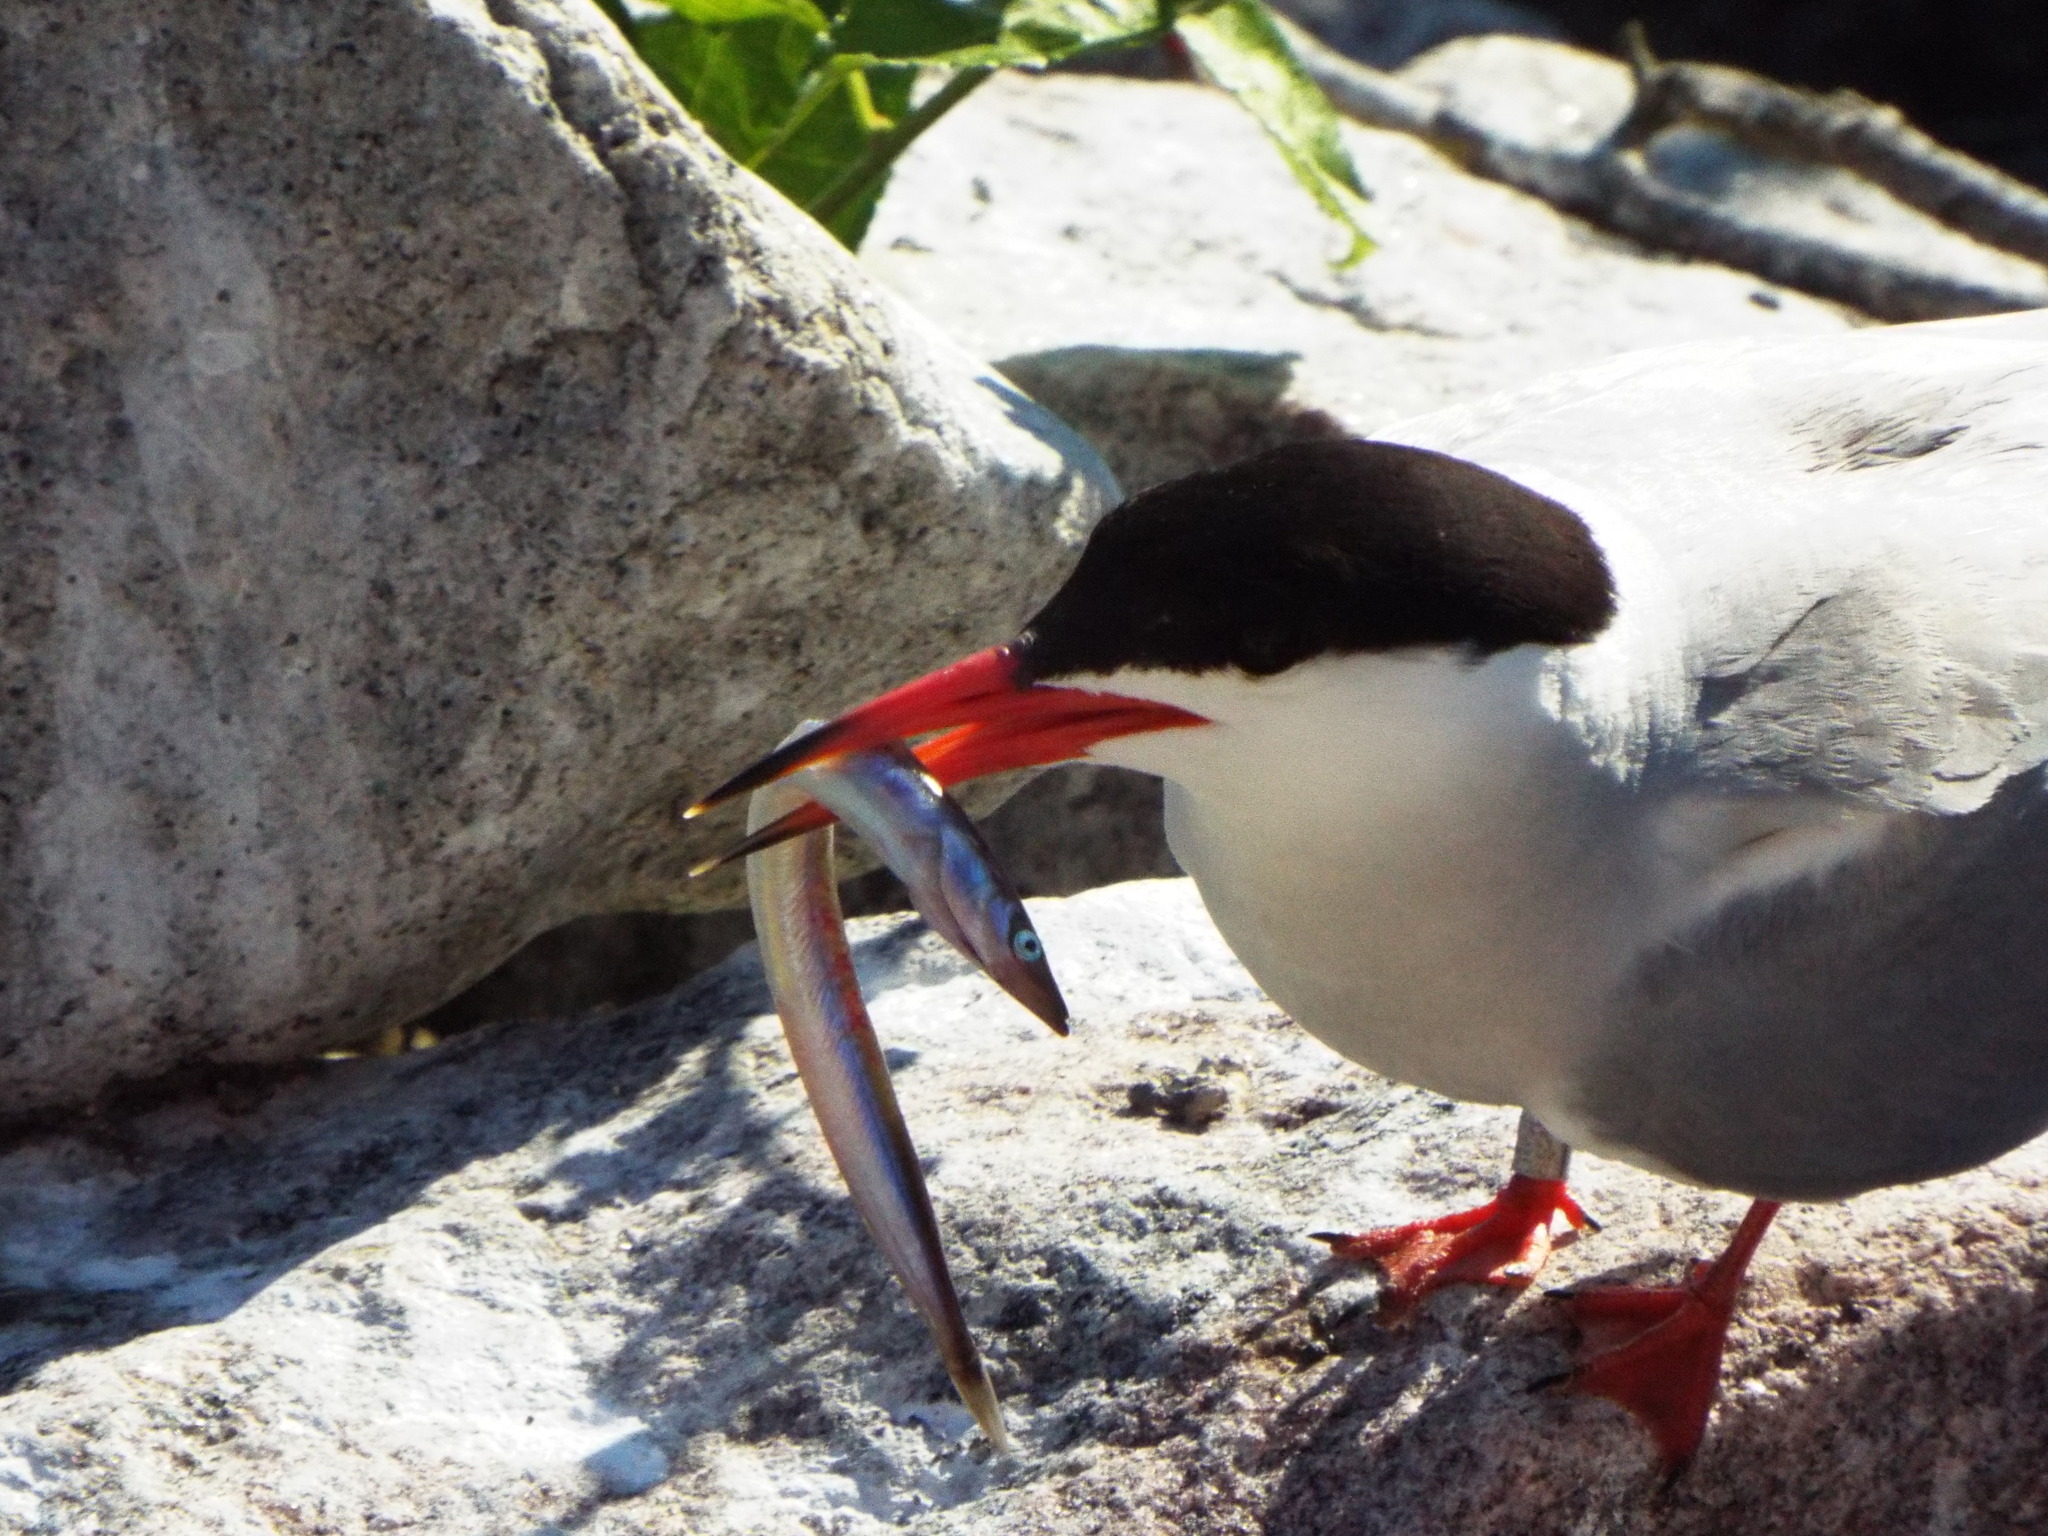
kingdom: Animalia
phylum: Chordata
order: Perciformes
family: Ammodytidae
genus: Ammodytes
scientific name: Ammodytes
